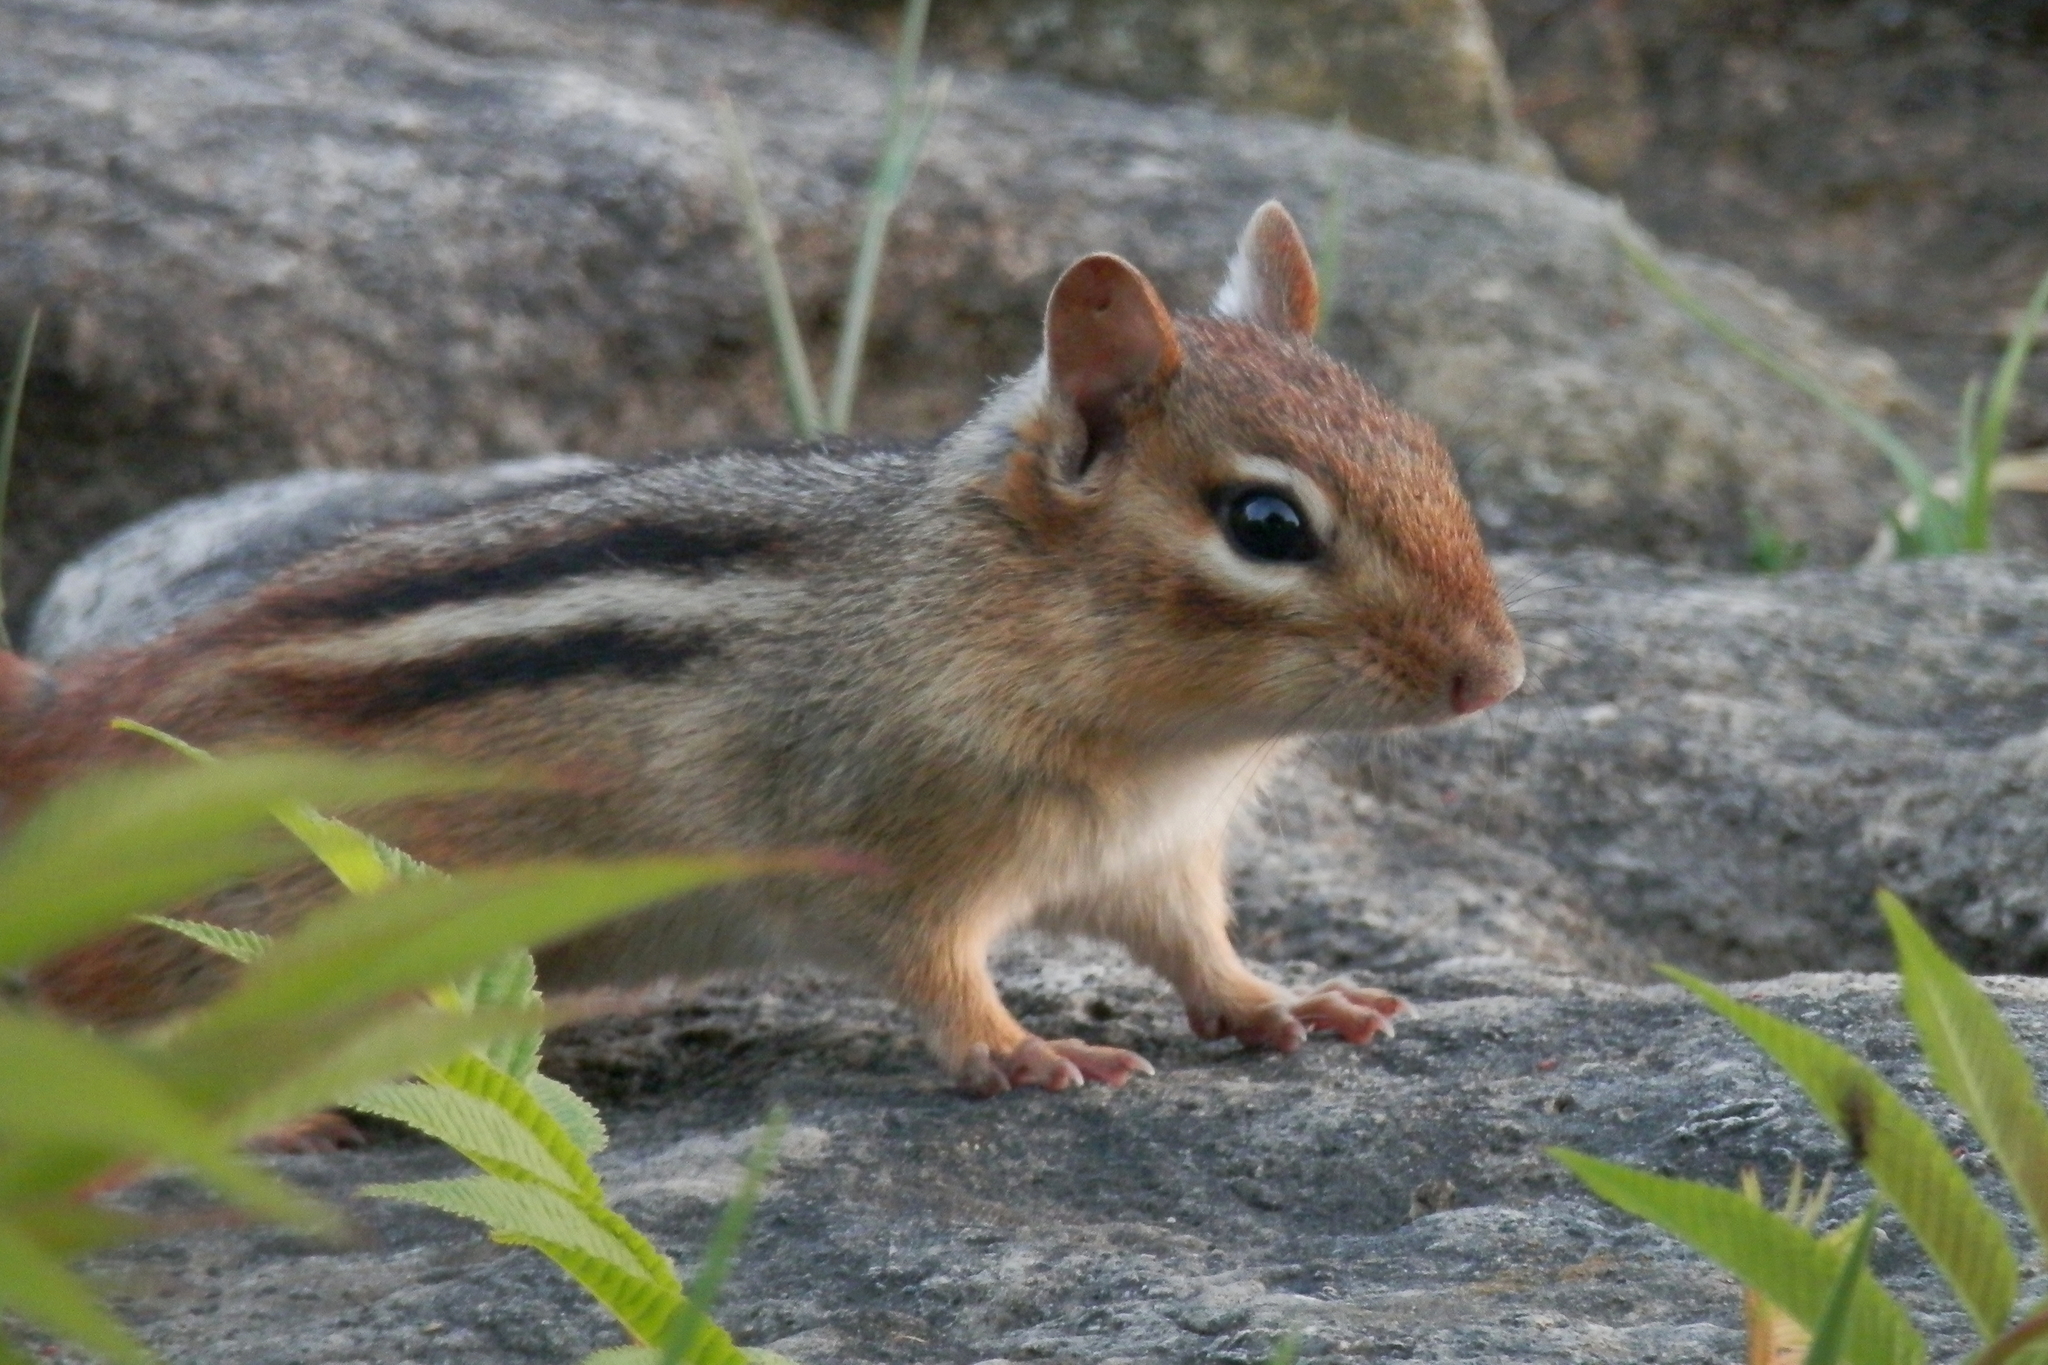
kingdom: Animalia
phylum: Chordata
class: Mammalia
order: Rodentia
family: Sciuridae
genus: Tamias
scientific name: Tamias striatus
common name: Eastern chipmunk
